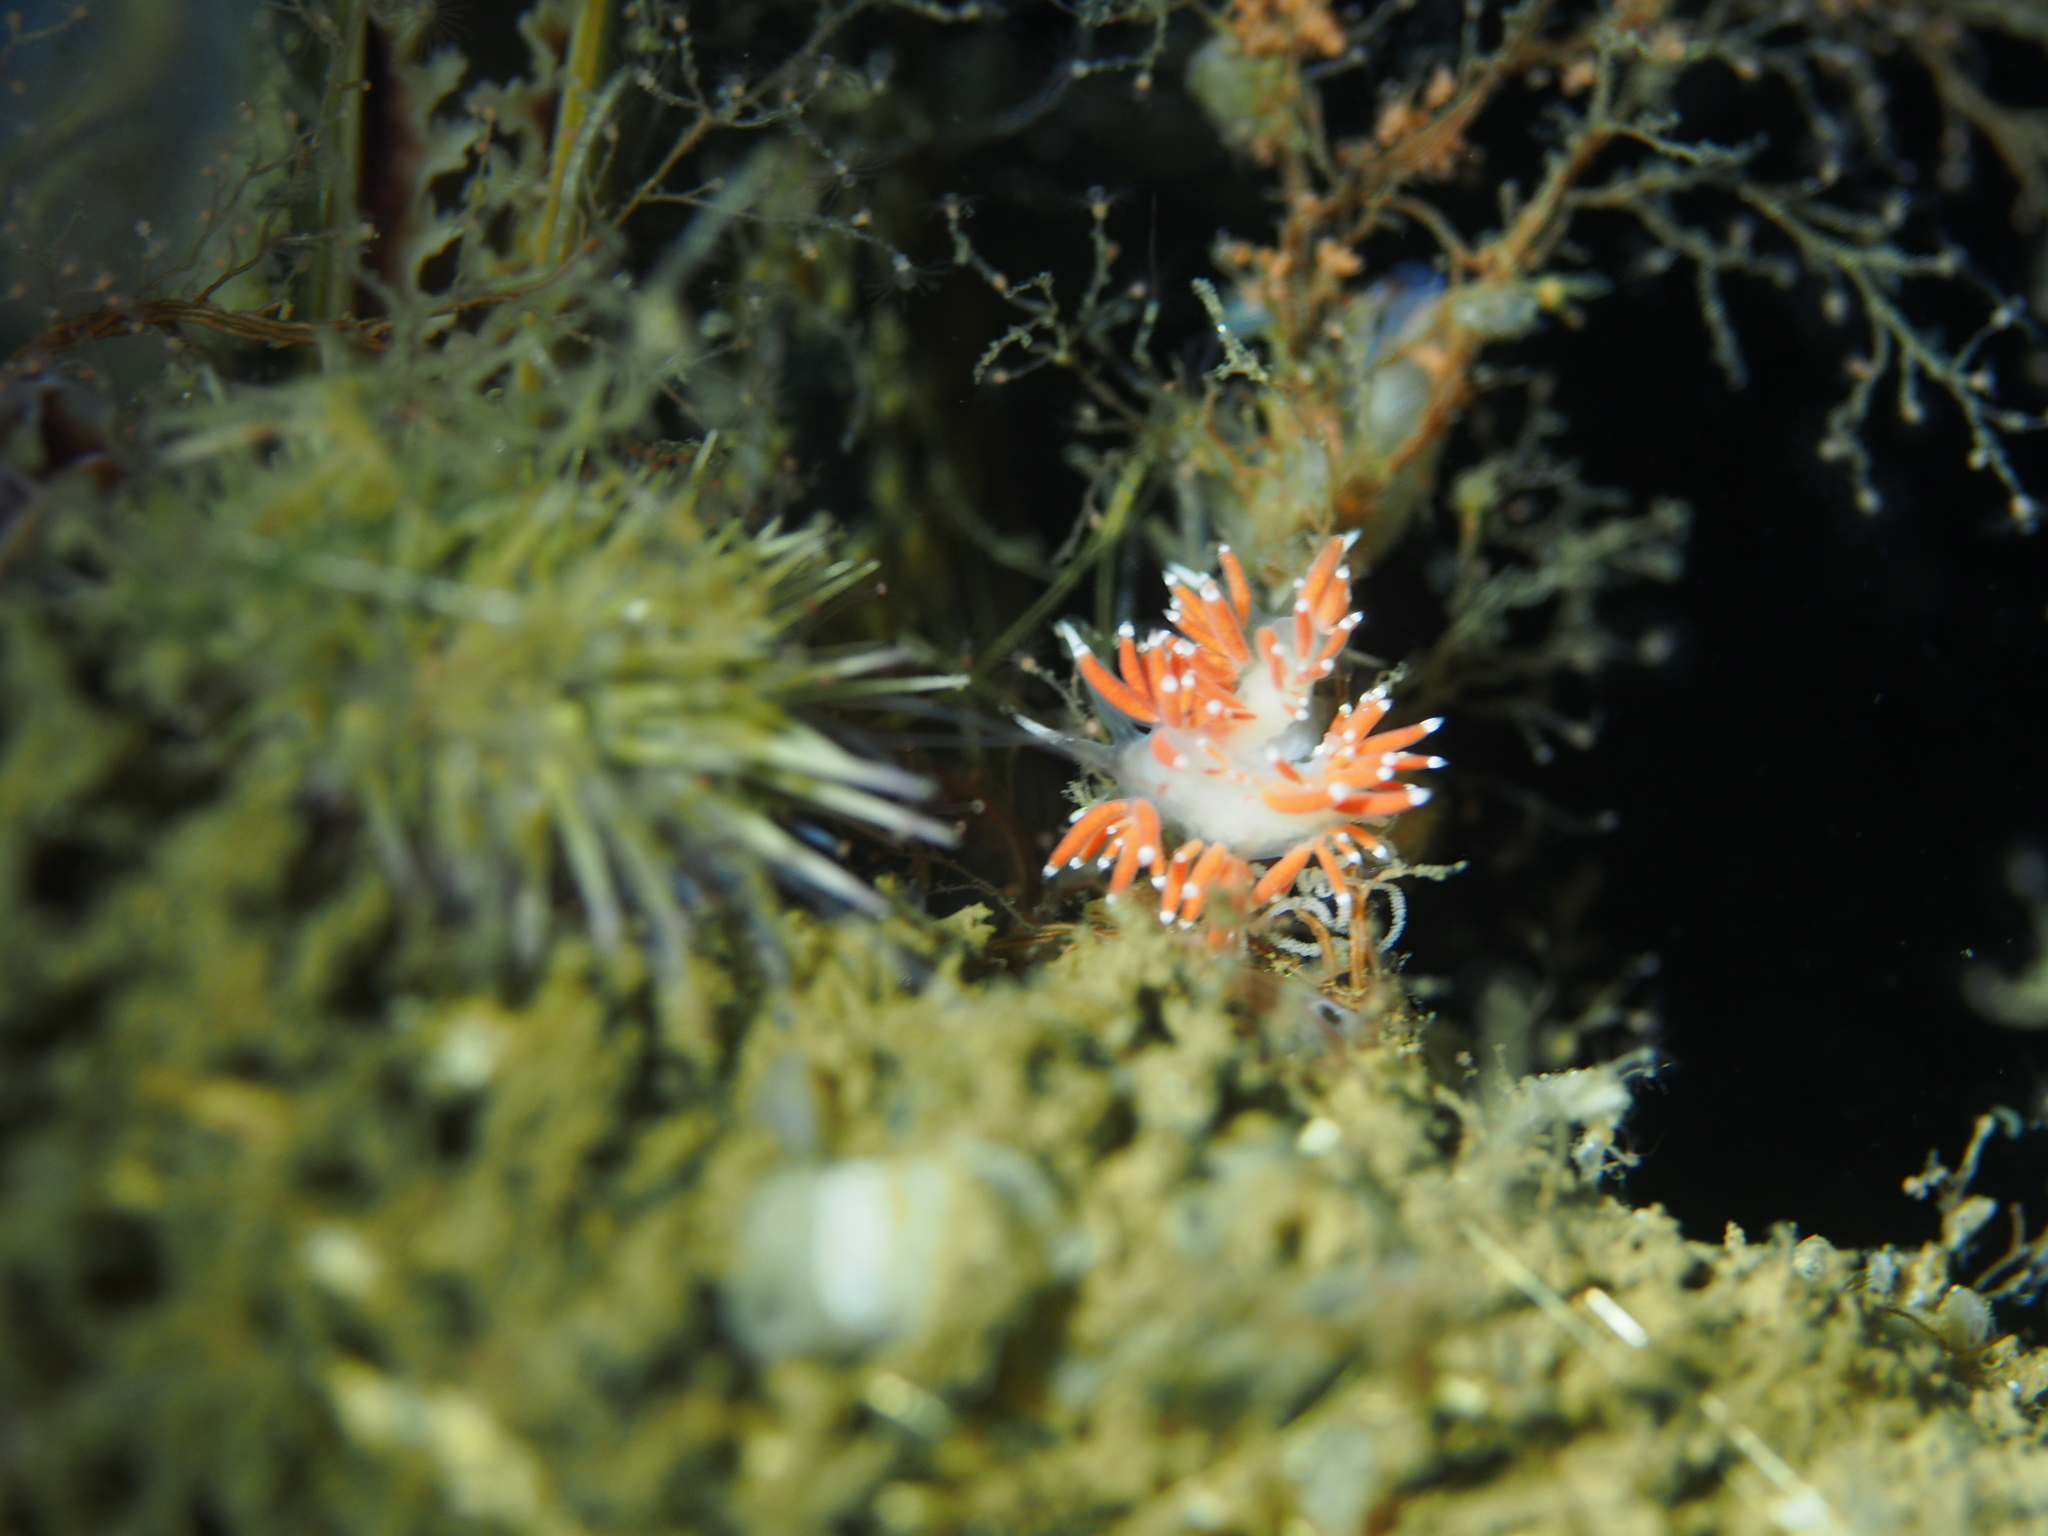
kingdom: Animalia
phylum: Mollusca
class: Gastropoda
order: Nudibranchia
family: Coryphellidae
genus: Coryphella
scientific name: Coryphella gracilis
